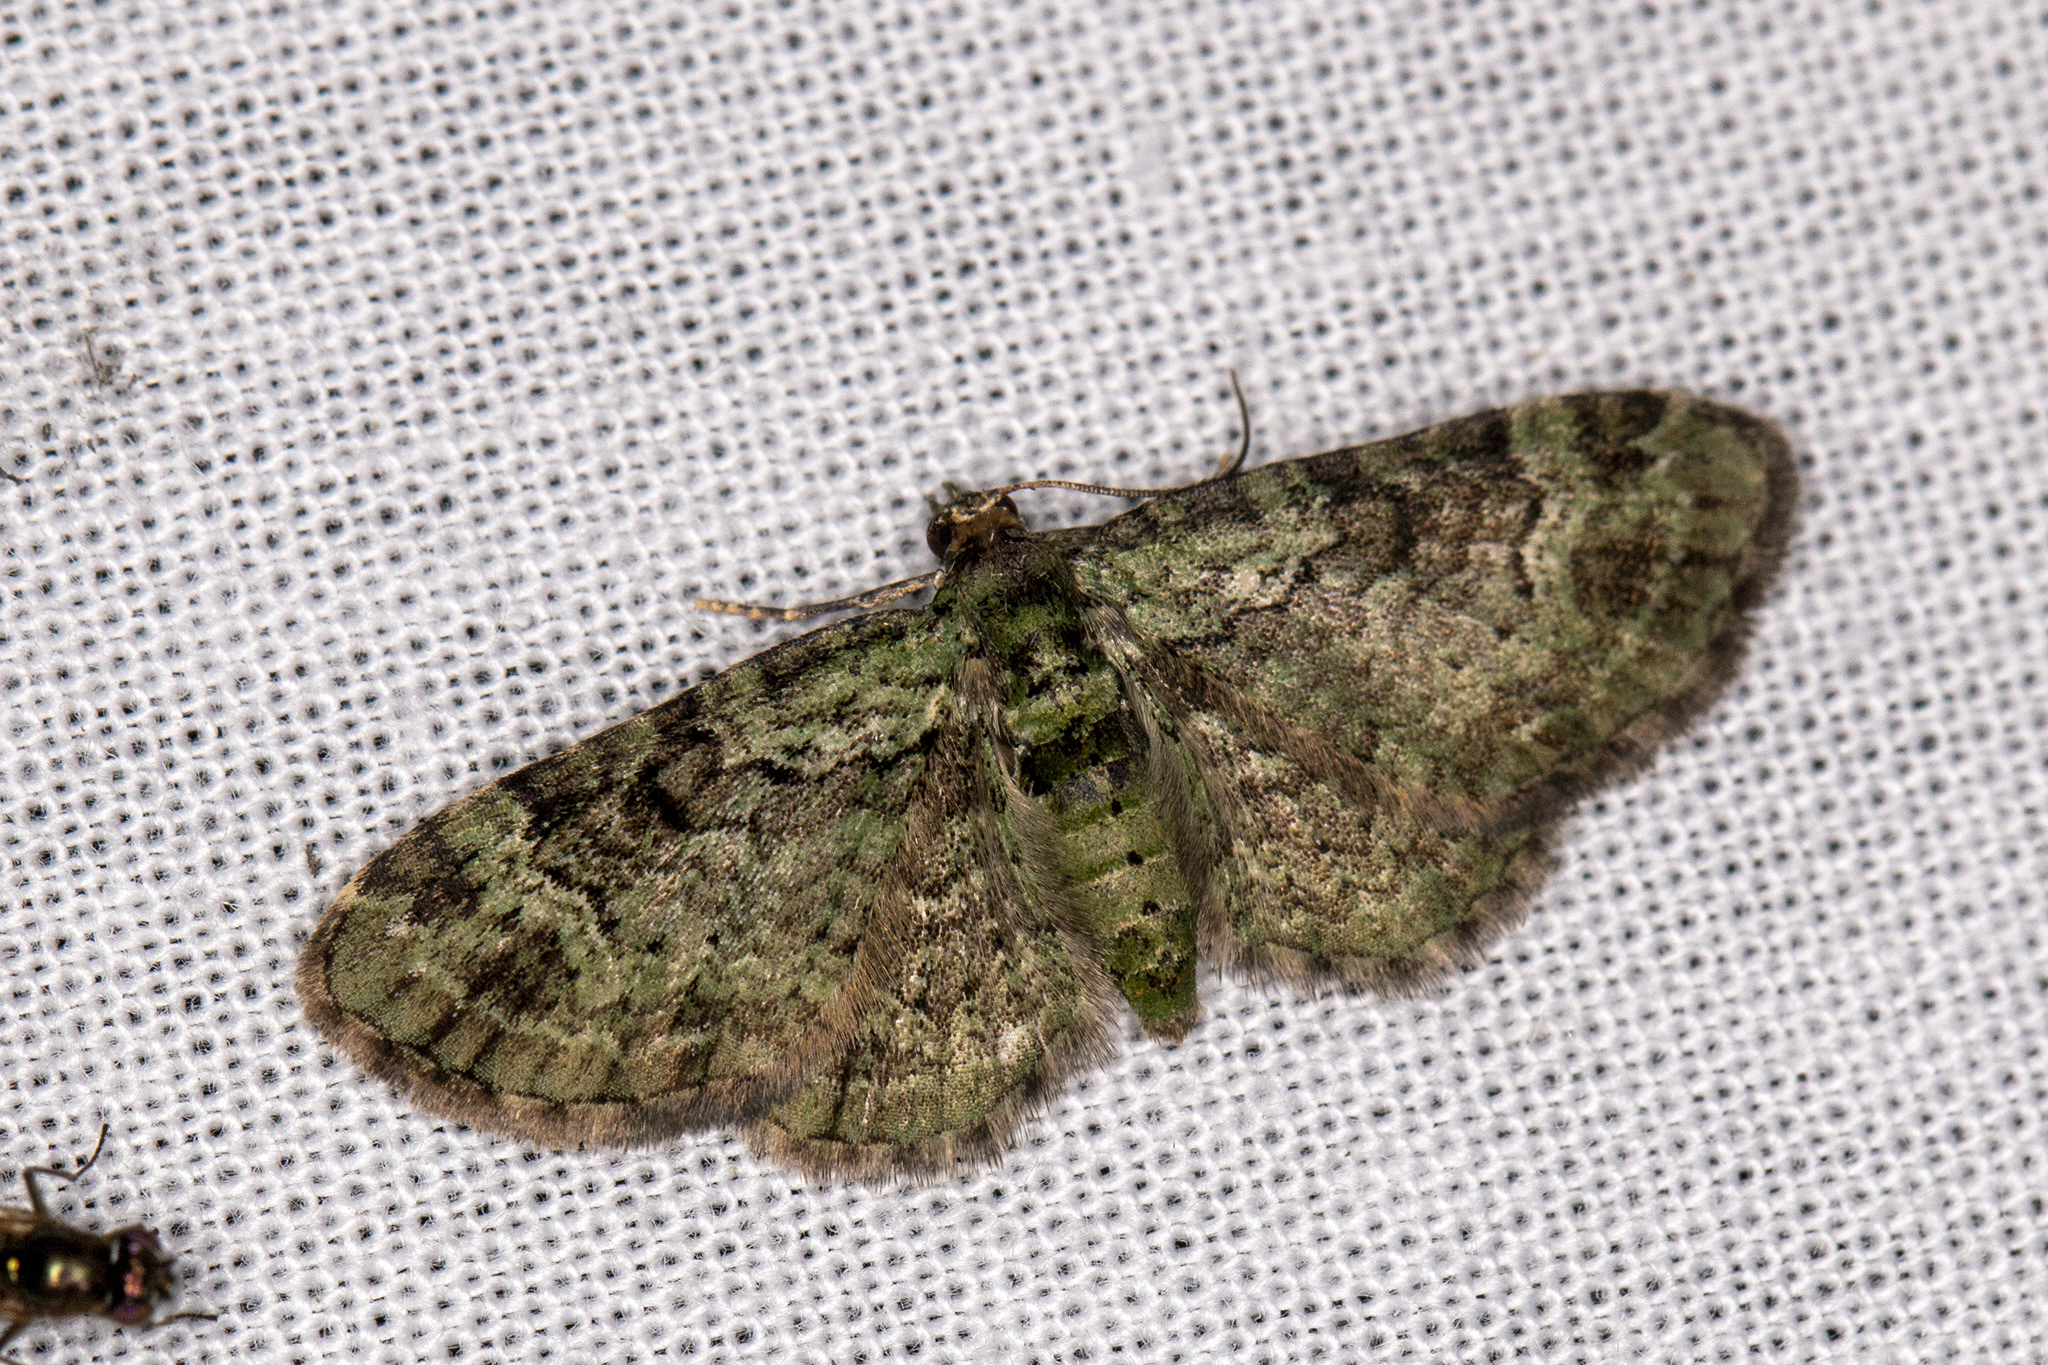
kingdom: Animalia
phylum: Arthropoda
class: Insecta
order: Lepidoptera
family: Geometridae
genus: Pasiphila
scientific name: Pasiphila rectangulata
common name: Green pug
